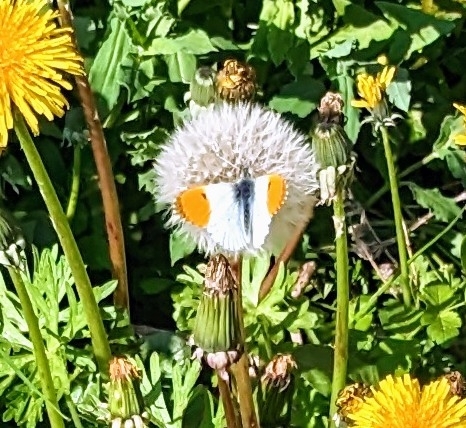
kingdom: Animalia
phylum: Arthropoda
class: Insecta
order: Lepidoptera
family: Pieridae
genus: Anthocharis
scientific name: Anthocharis cardamines
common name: Orange-tip
